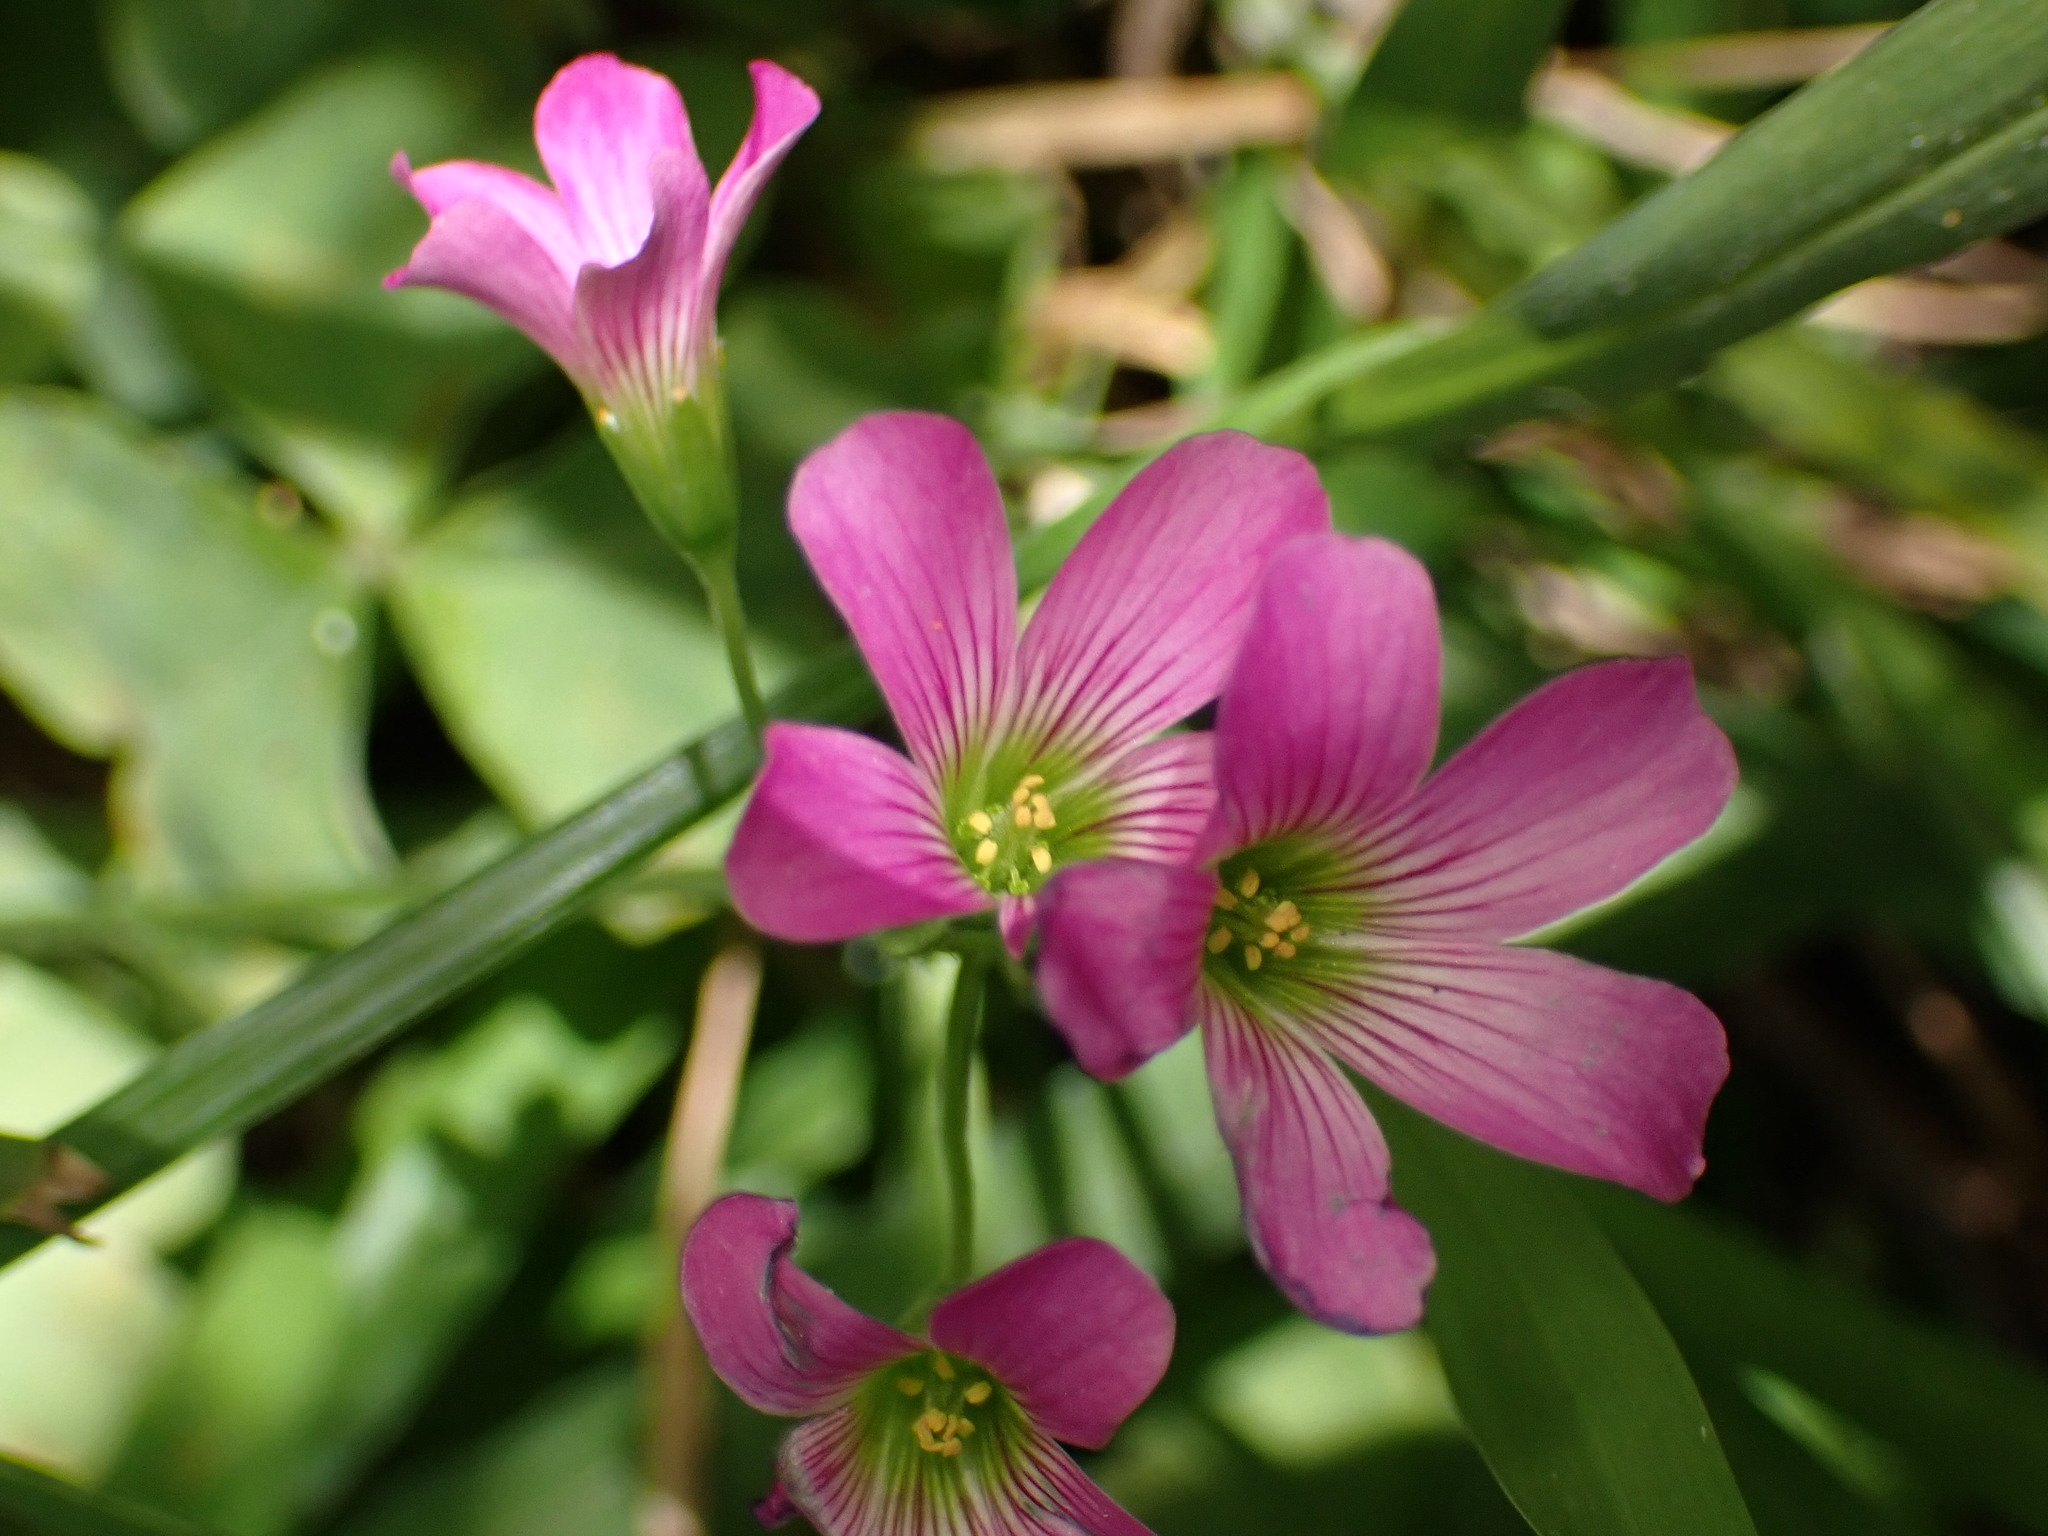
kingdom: Plantae
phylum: Tracheophyta
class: Magnoliopsida
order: Oxalidales
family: Oxalidaceae
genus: Oxalis
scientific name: Oxalis debilis
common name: Large-flowered pink-sorrel
